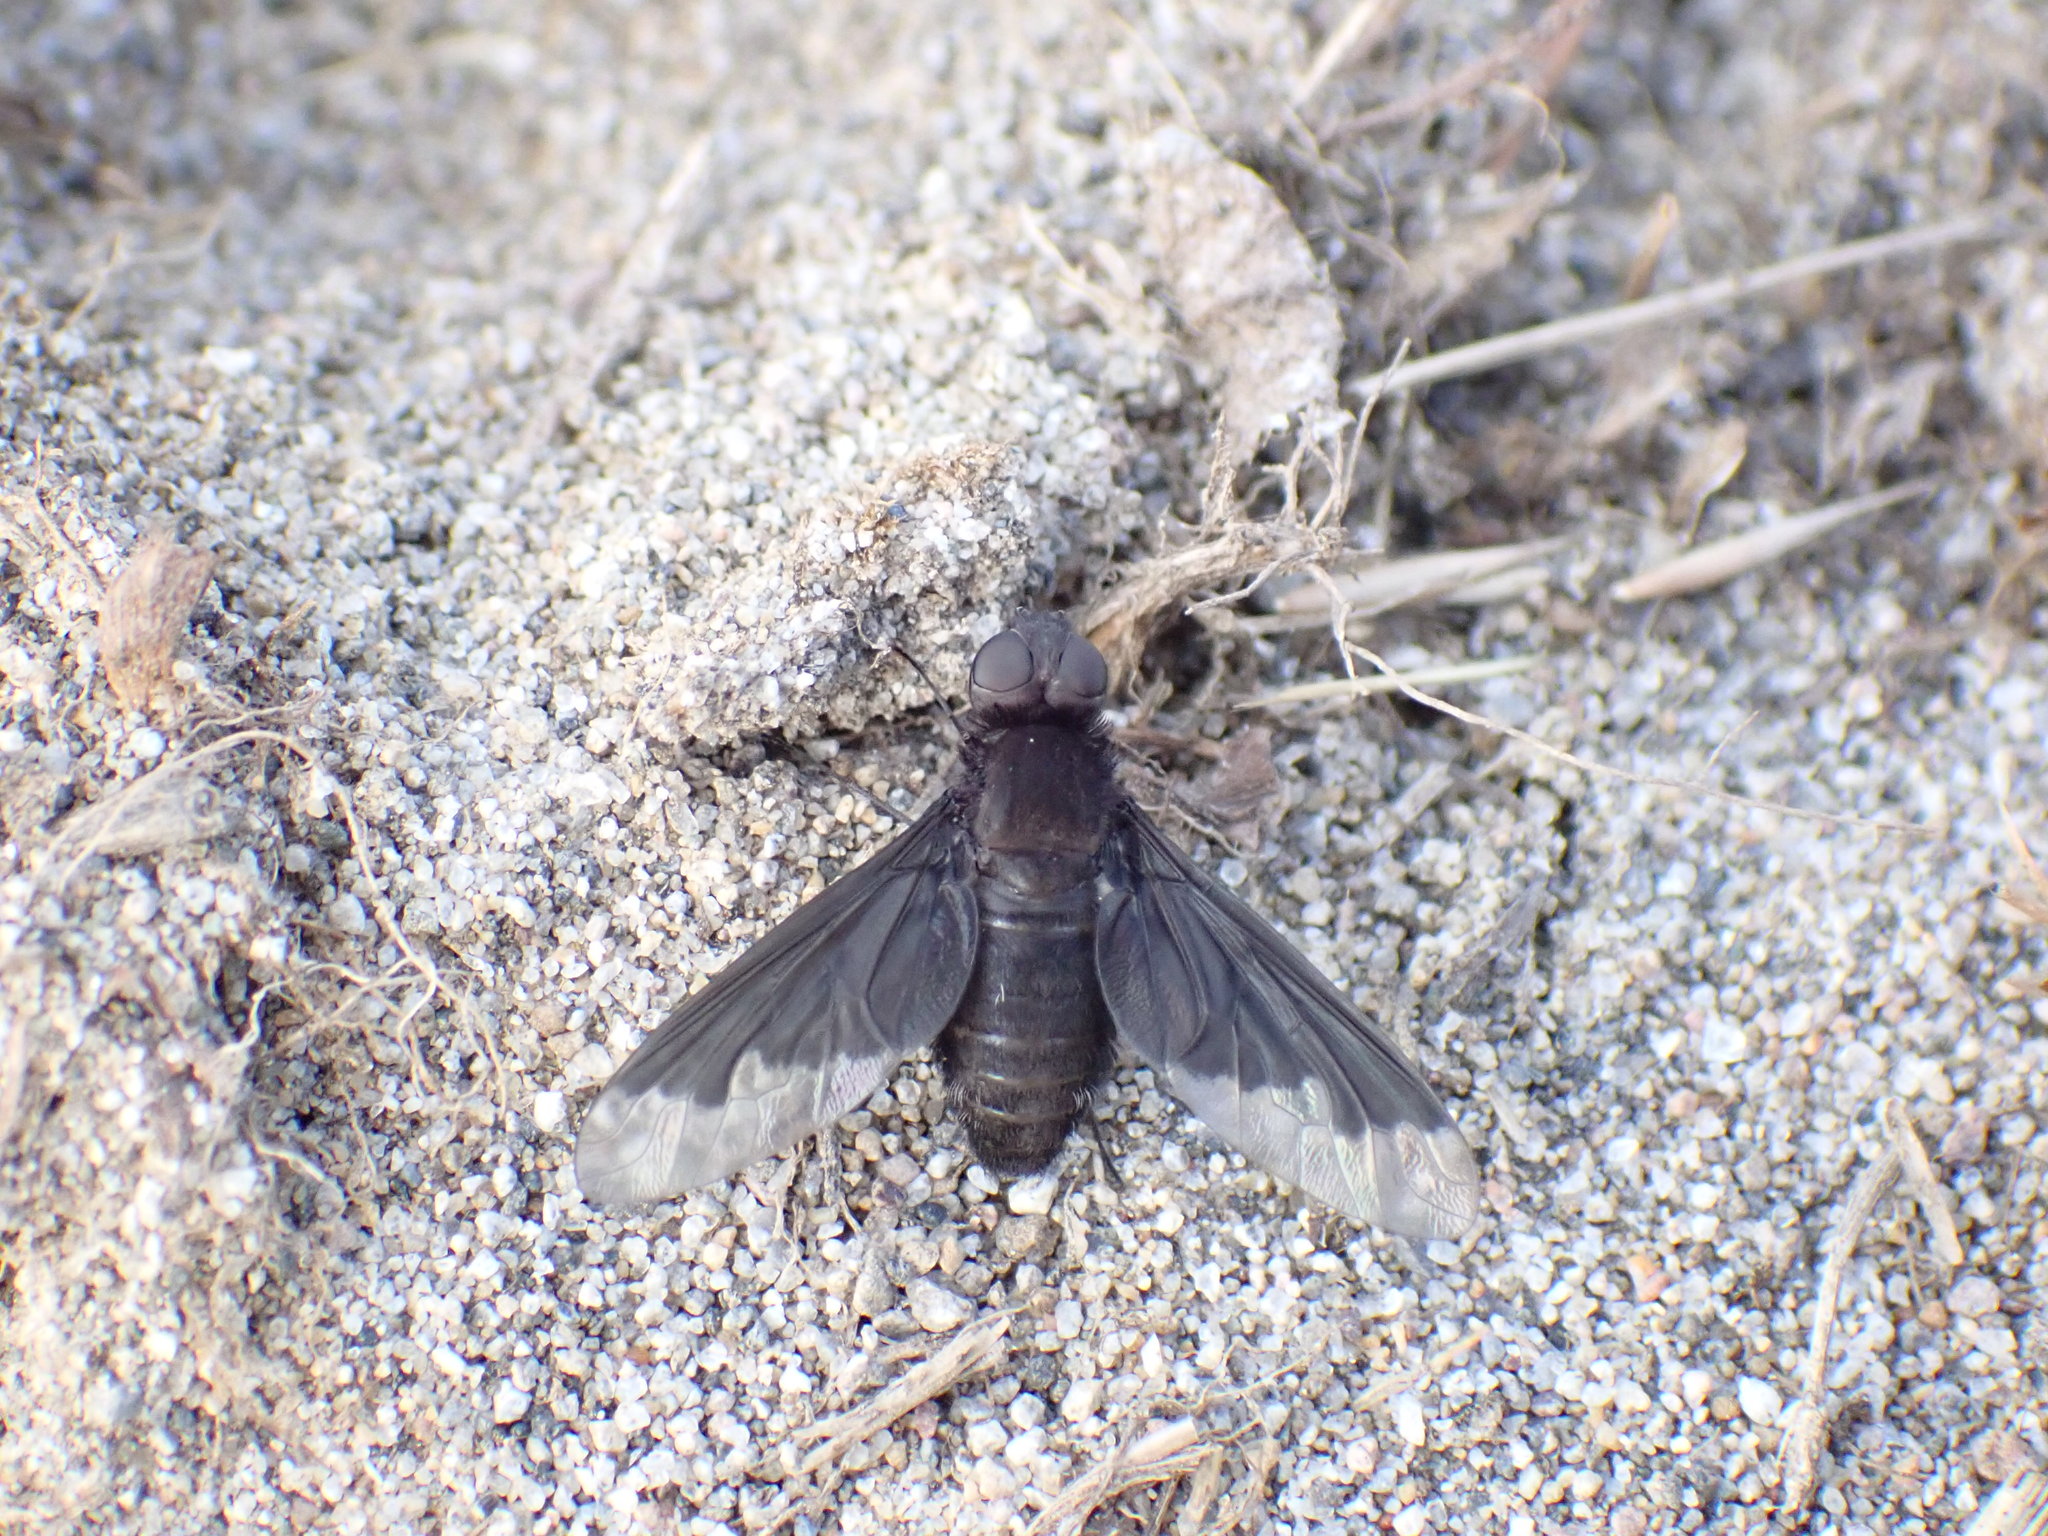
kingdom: Animalia
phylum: Arthropoda
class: Insecta
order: Diptera
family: Bombyliidae
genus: Anthrax
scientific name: Anthrax analis
